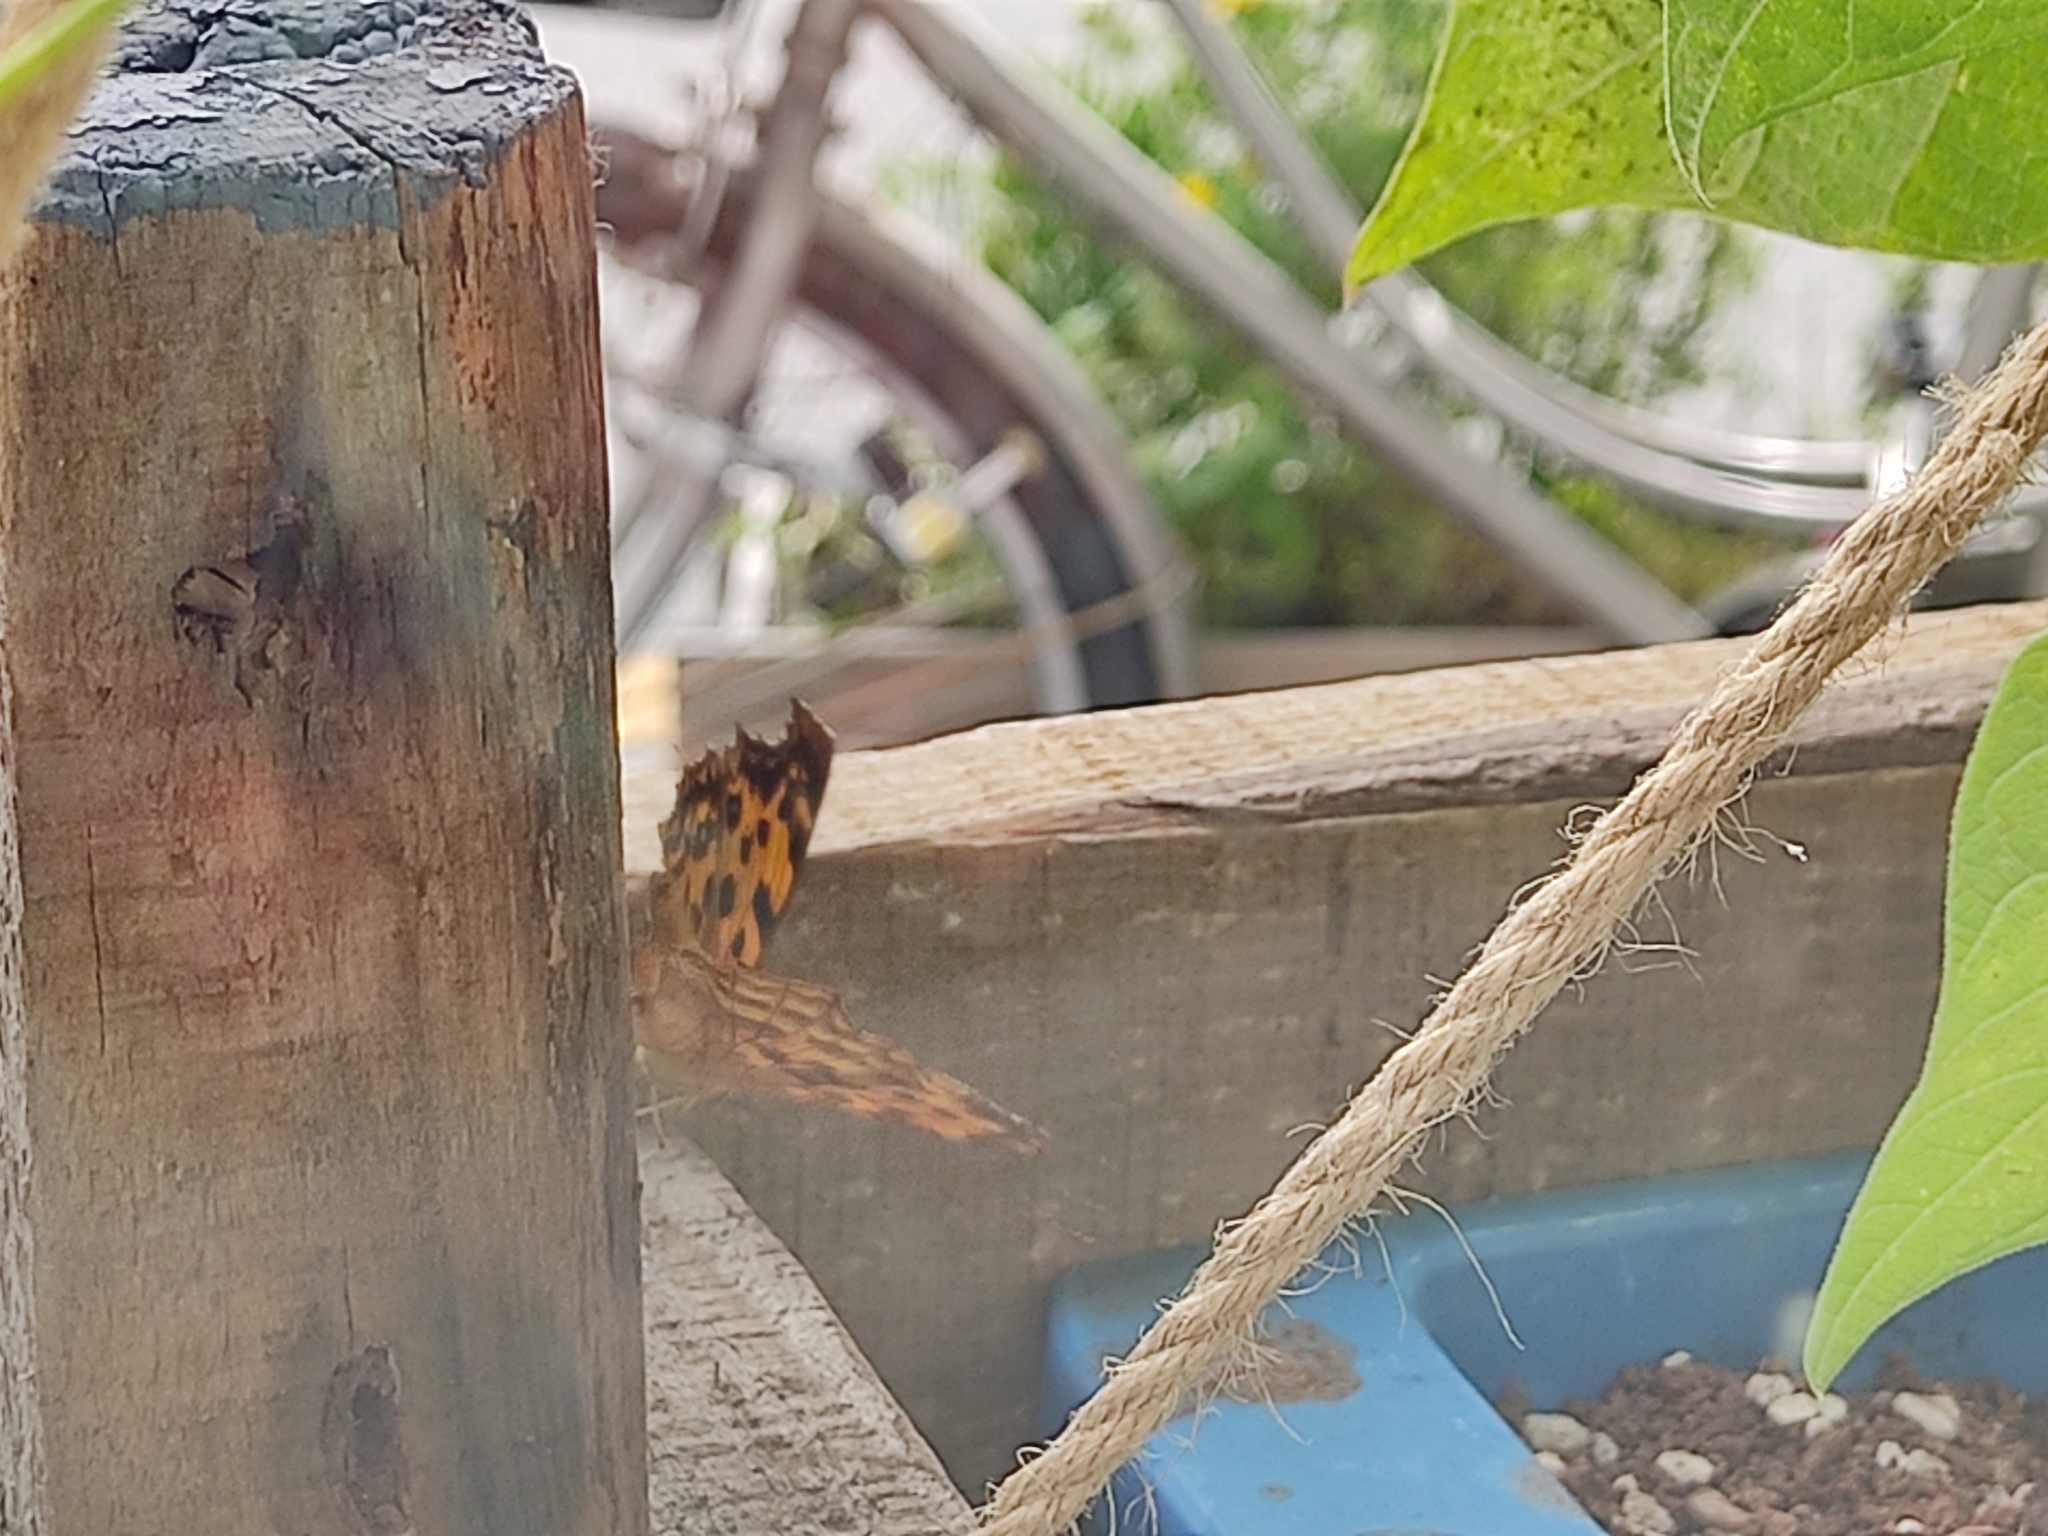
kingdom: Animalia
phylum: Arthropoda
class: Insecta
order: Lepidoptera
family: Nymphalidae
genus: Polygonia
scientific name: Polygonia c-aureum
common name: Asian comma
